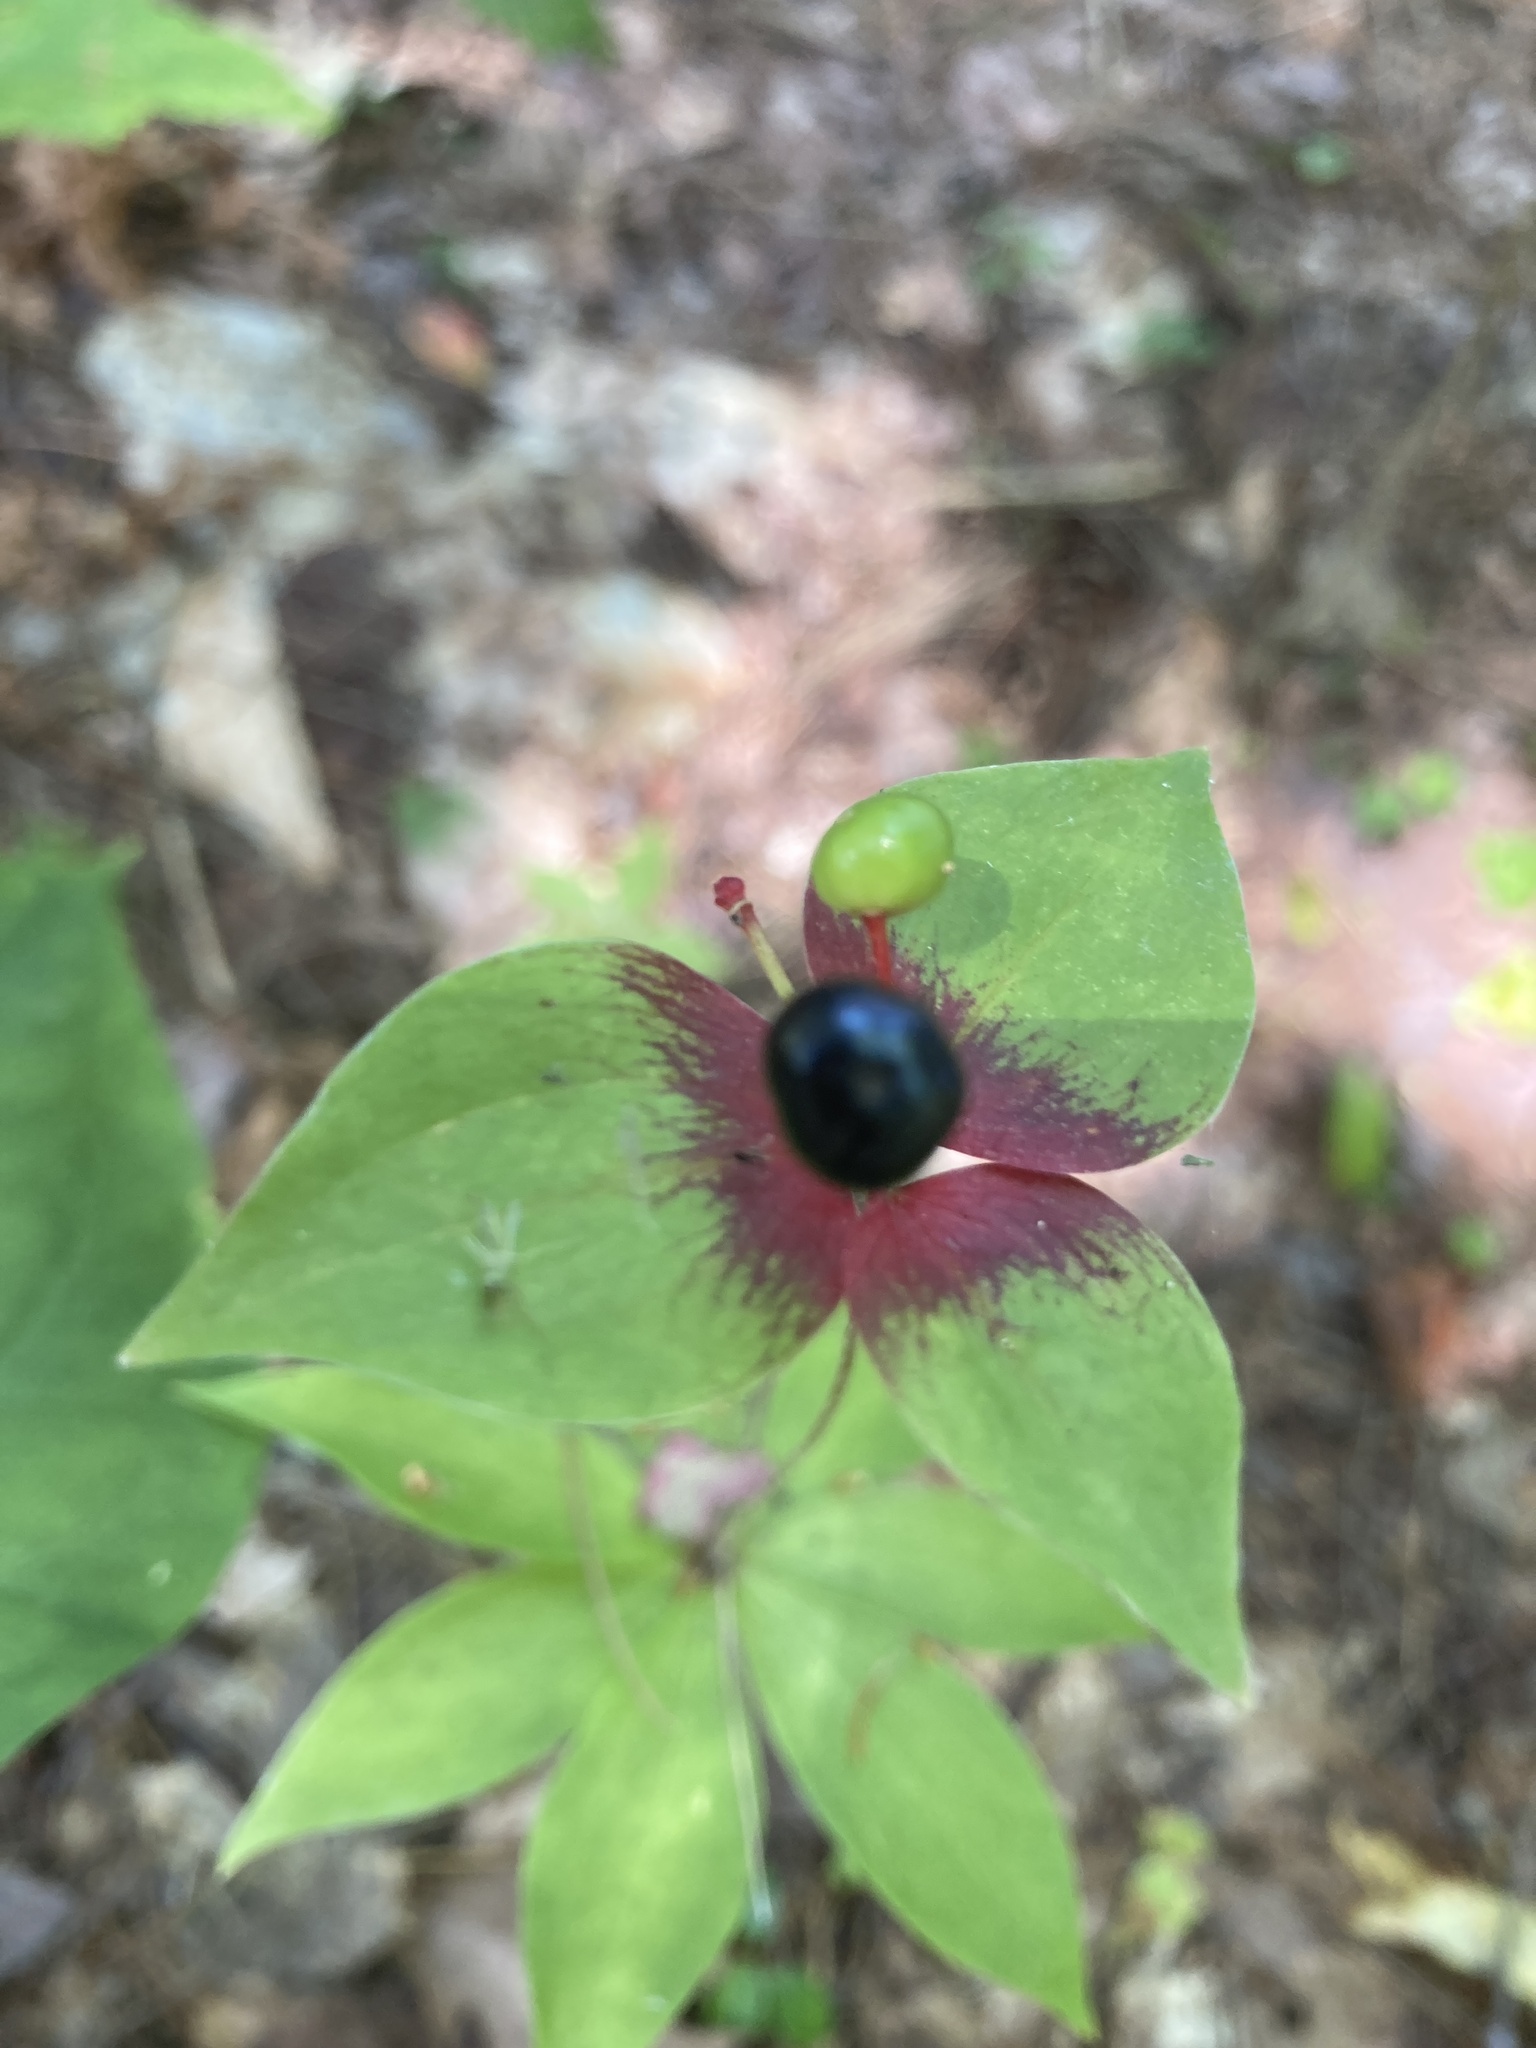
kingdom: Plantae
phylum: Tracheophyta
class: Liliopsida
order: Liliales
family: Liliaceae
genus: Medeola
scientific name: Medeola virginiana
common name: Indian cucumber-root
